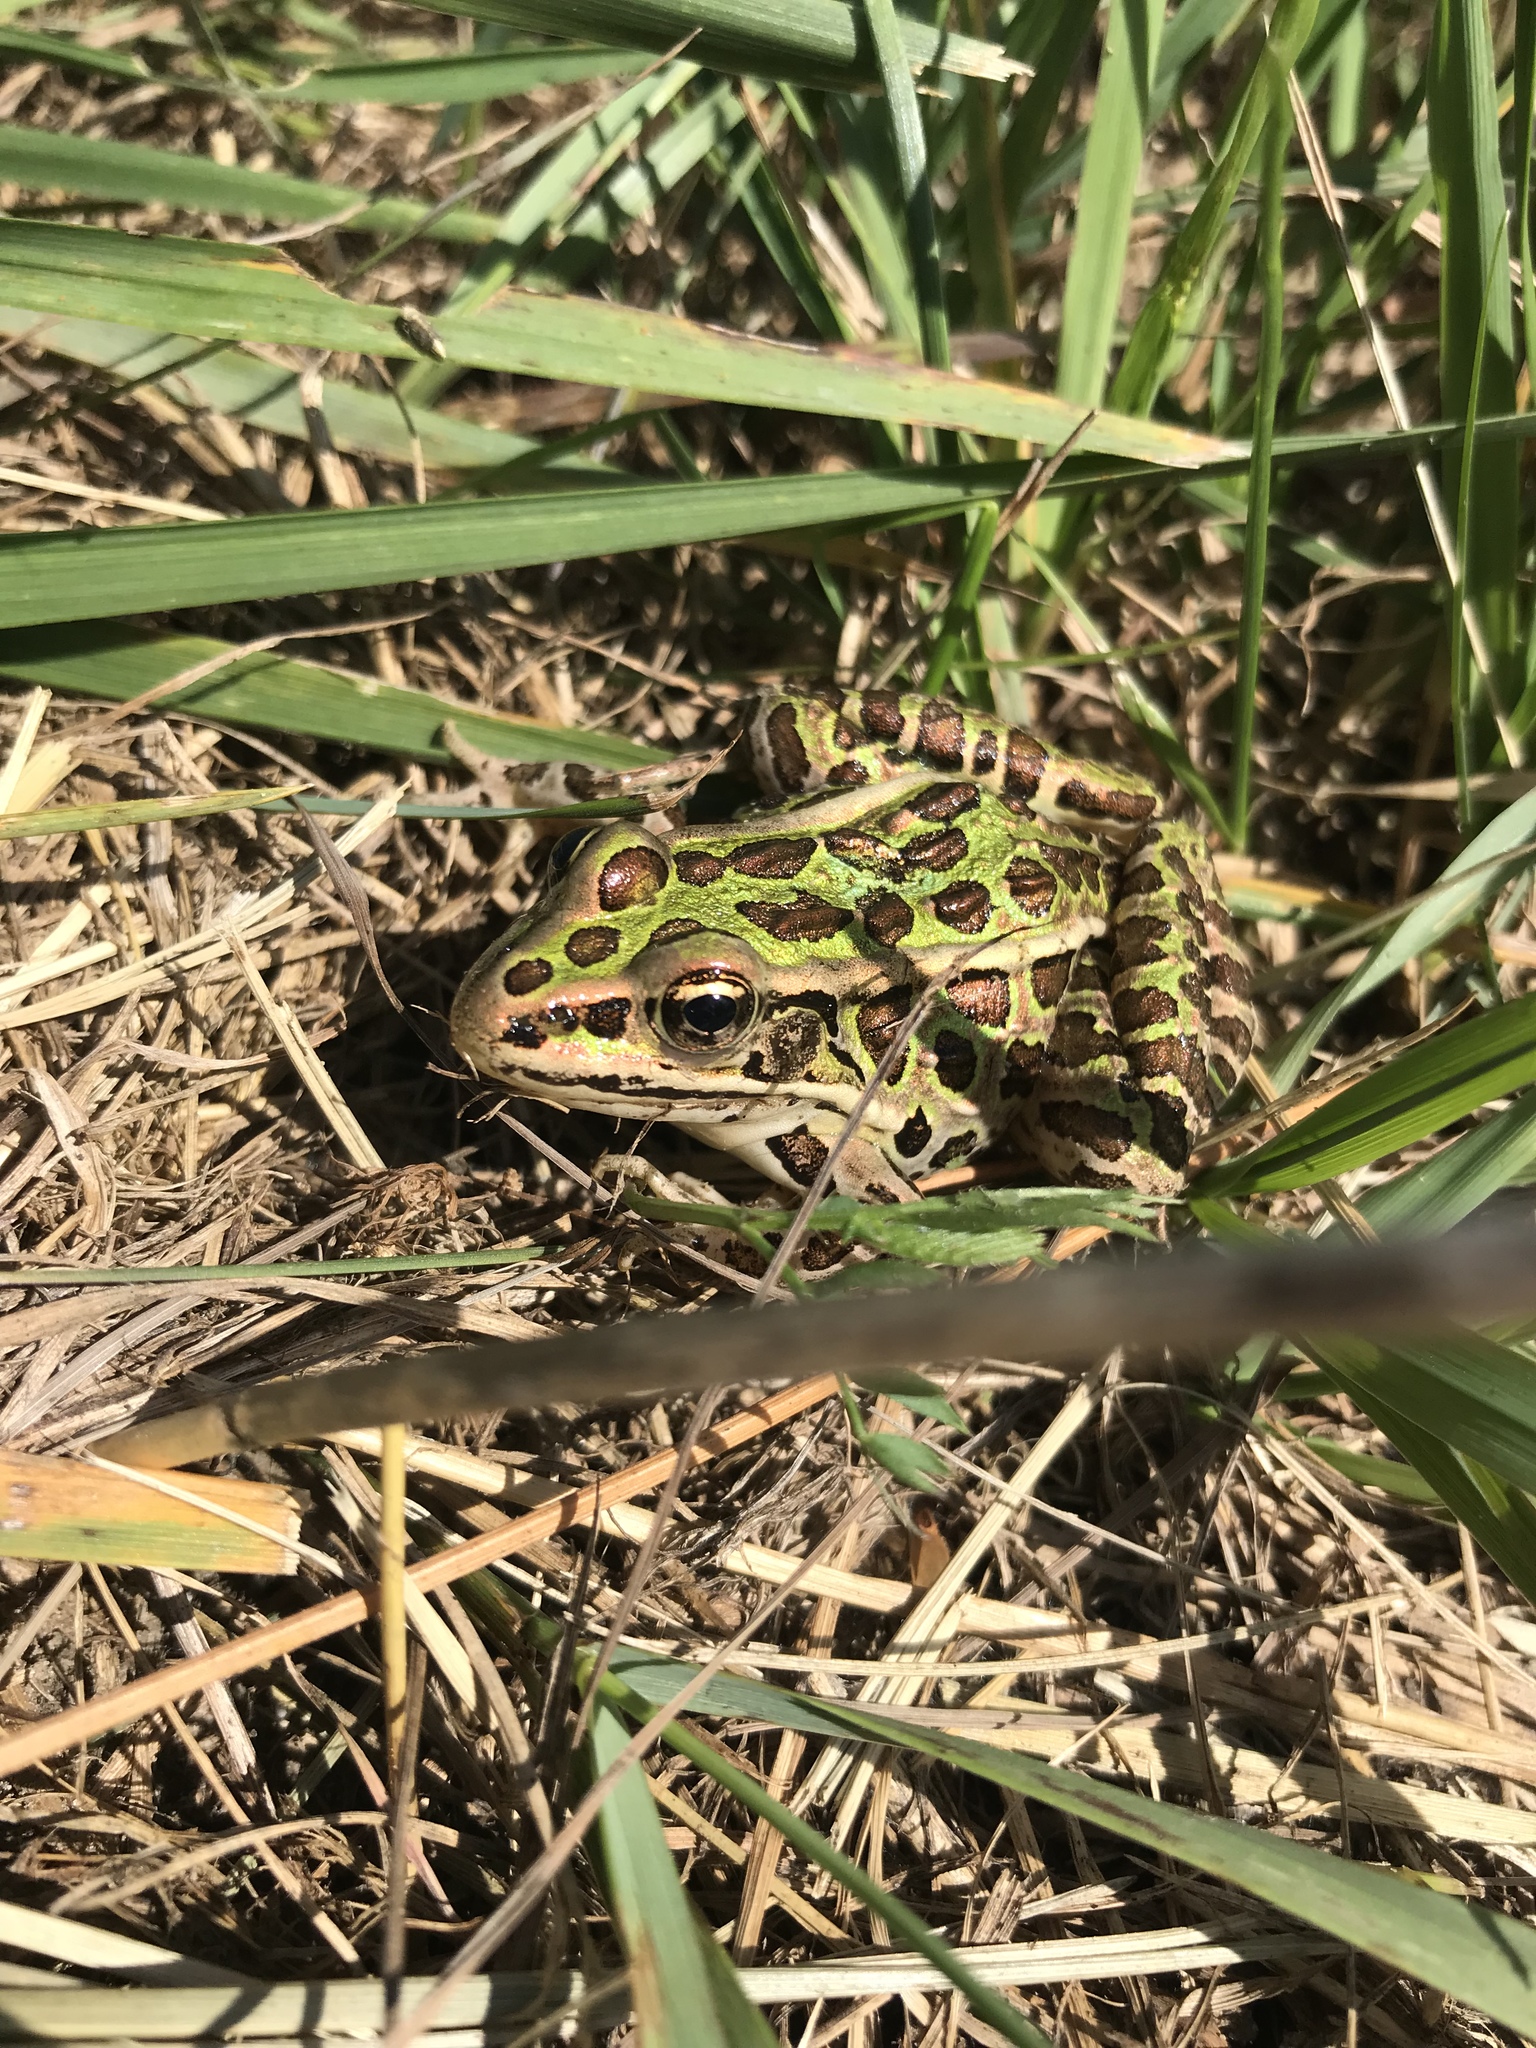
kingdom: Animalia
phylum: Chordata
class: Amphibia
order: Anura
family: Ranidae
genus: Lithobates
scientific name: Lithobates pipiens
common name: Northern leopard frog
